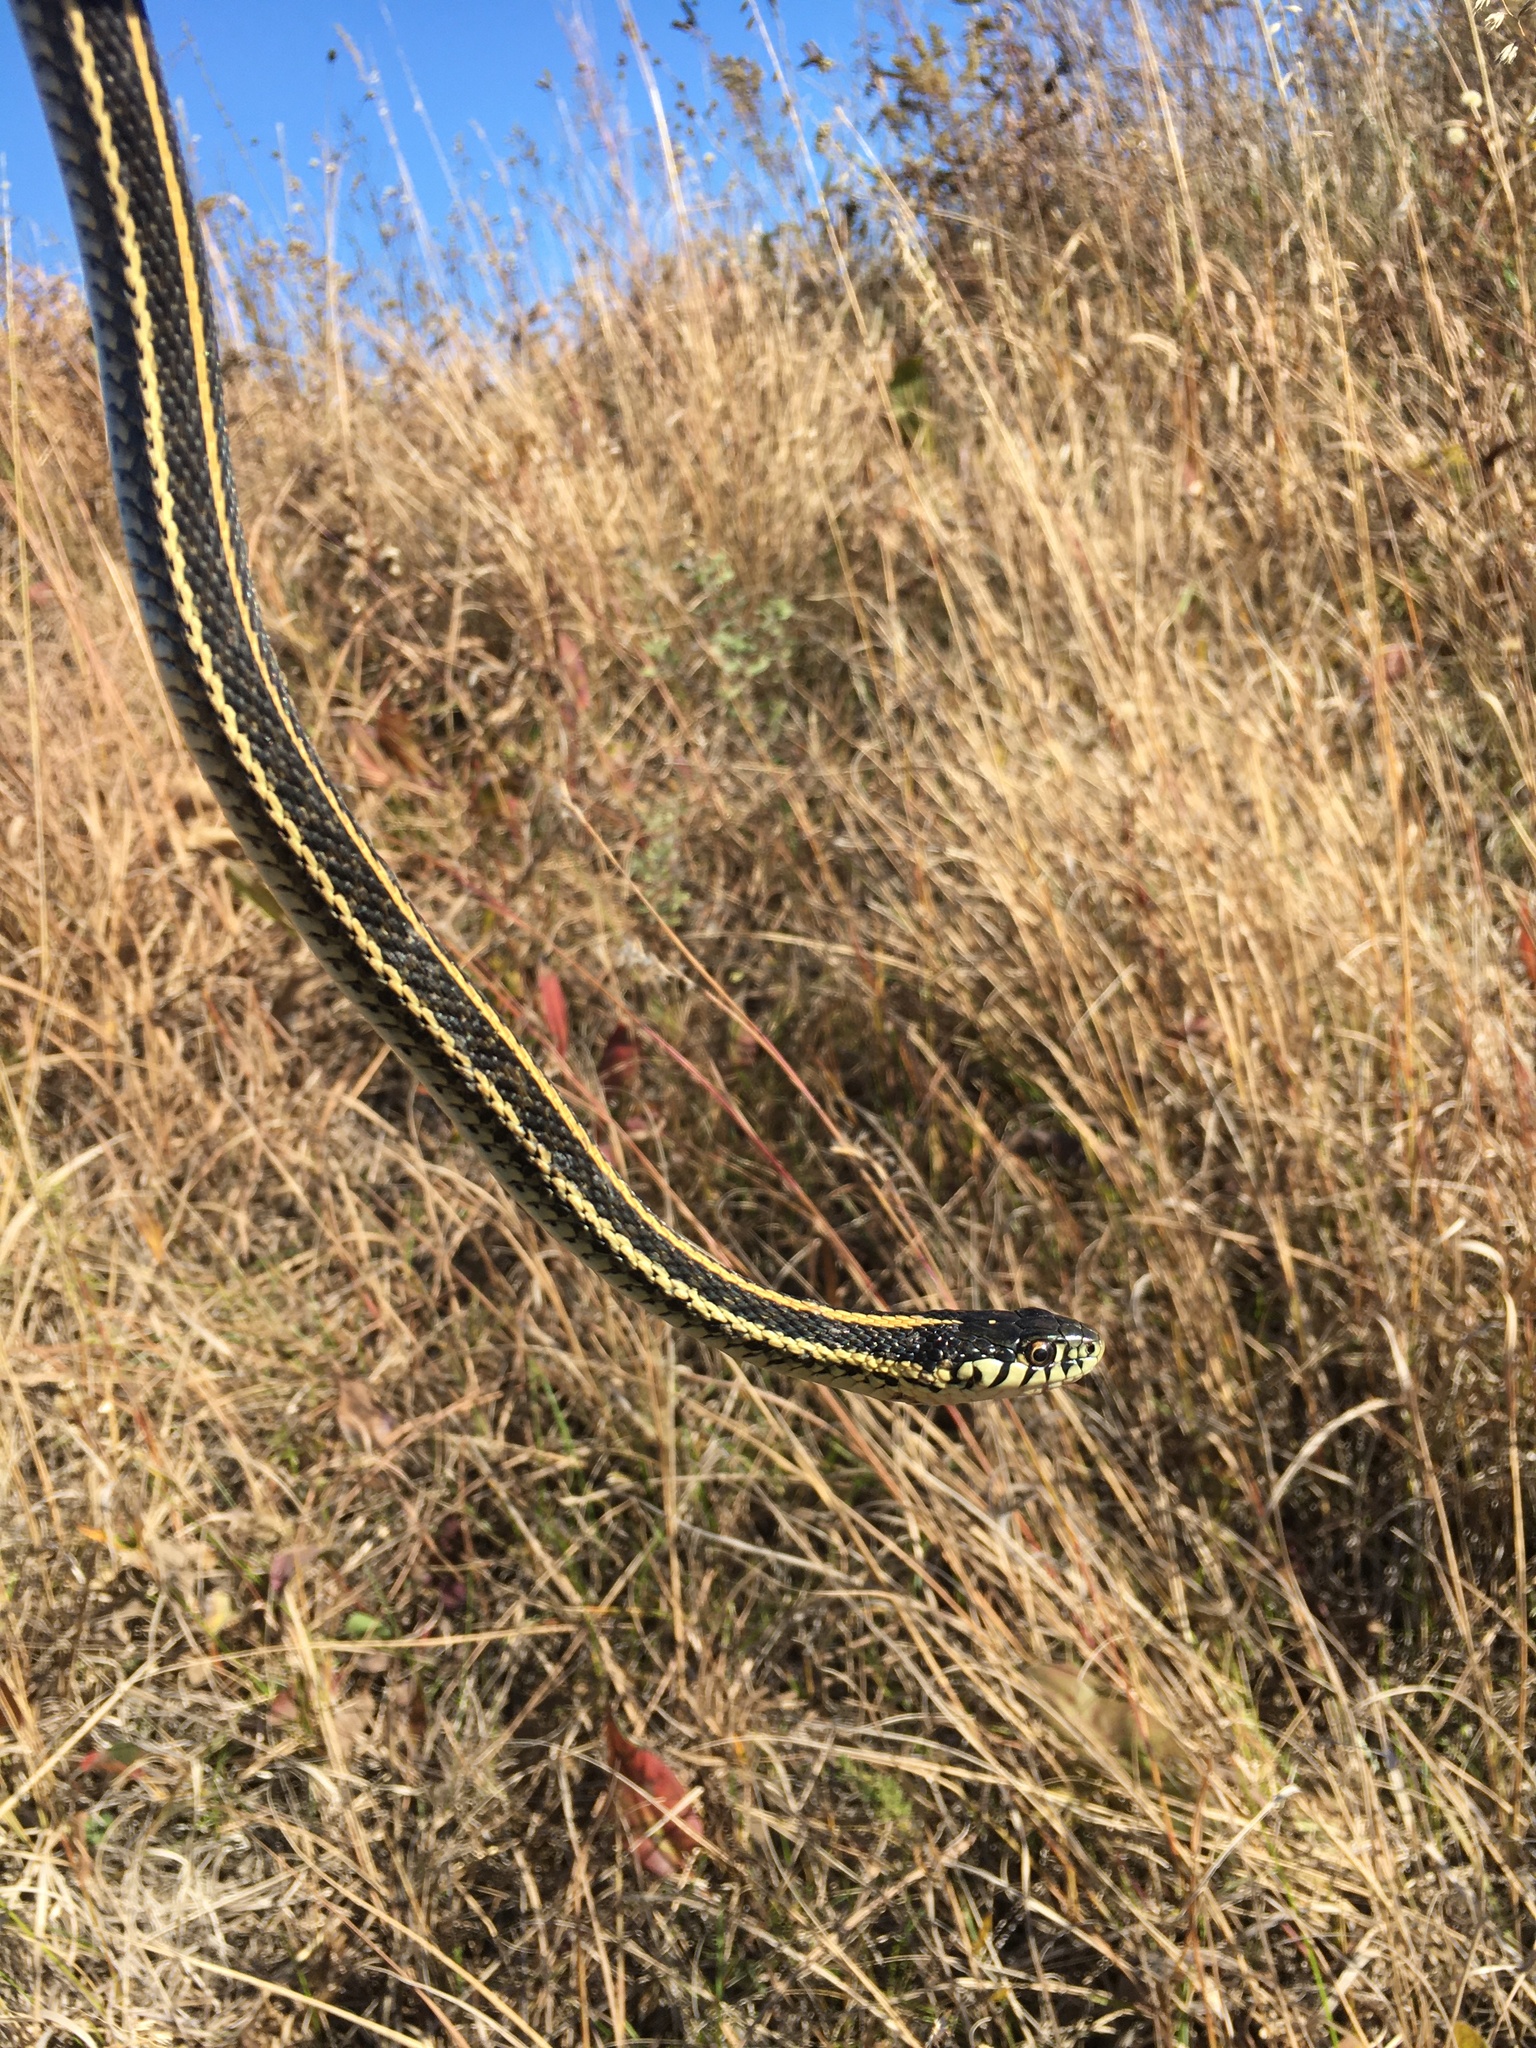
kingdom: Animalia
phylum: Chordata
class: Squamata
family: Colubridae
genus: Thamnophis
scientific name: Thamnophis radix
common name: Plains garter snake
